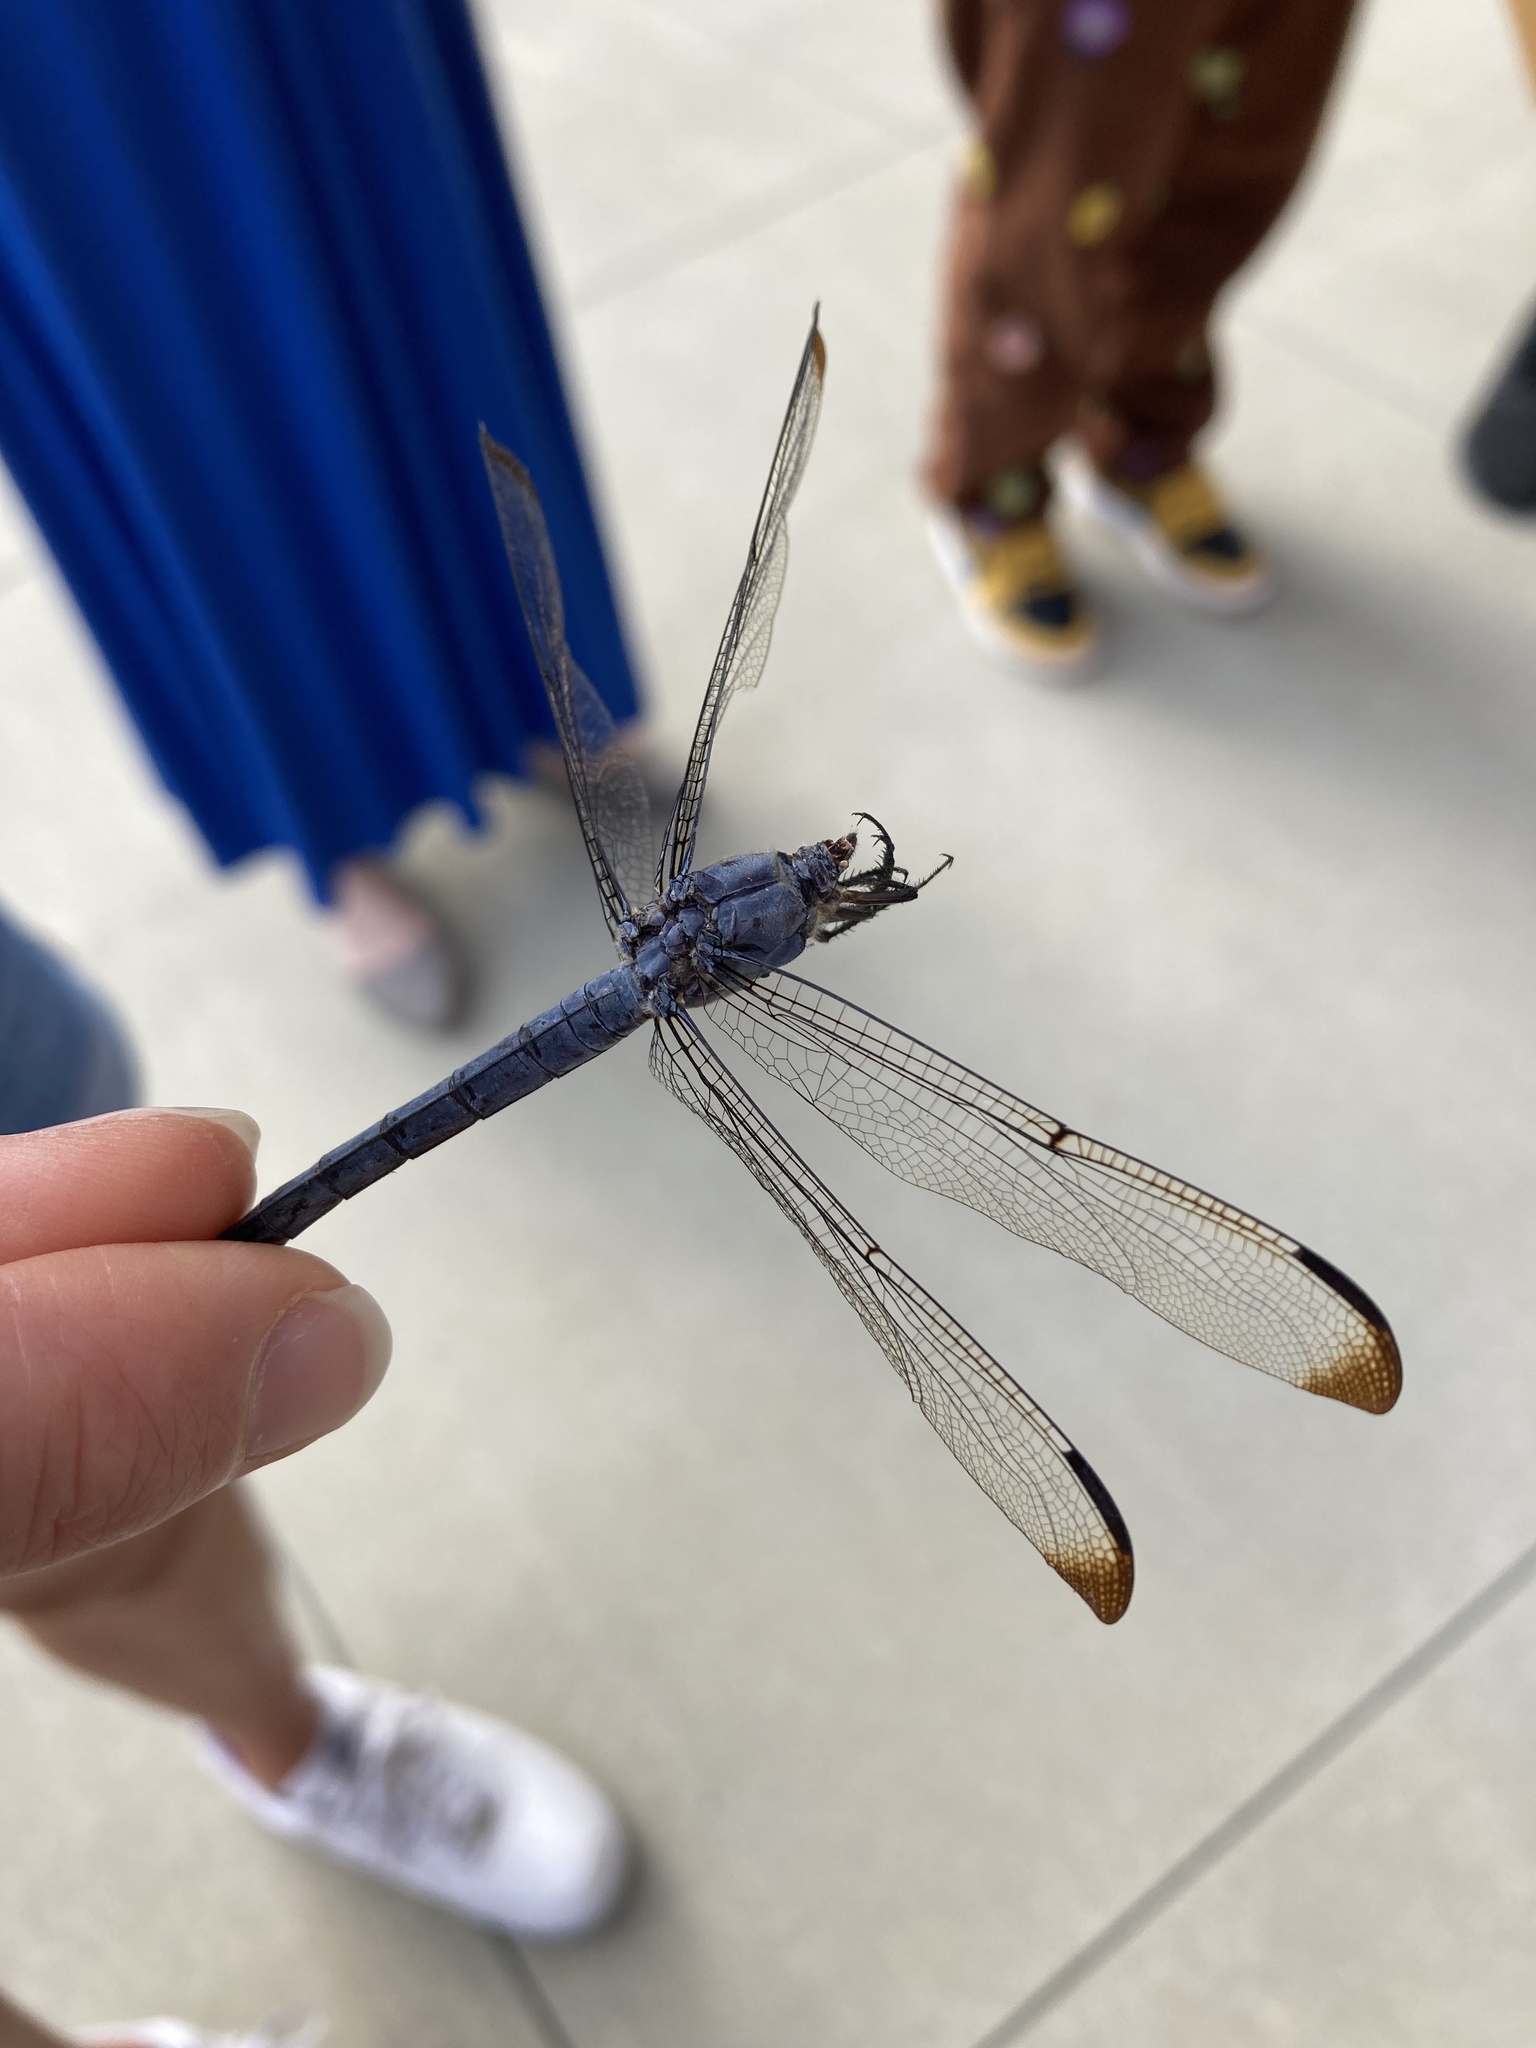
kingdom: Animalia
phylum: Arthropoda
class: Insecta
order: Odonata
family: Libellulidae
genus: Libellula
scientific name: Libellula incesta
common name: Slaty skimmer
